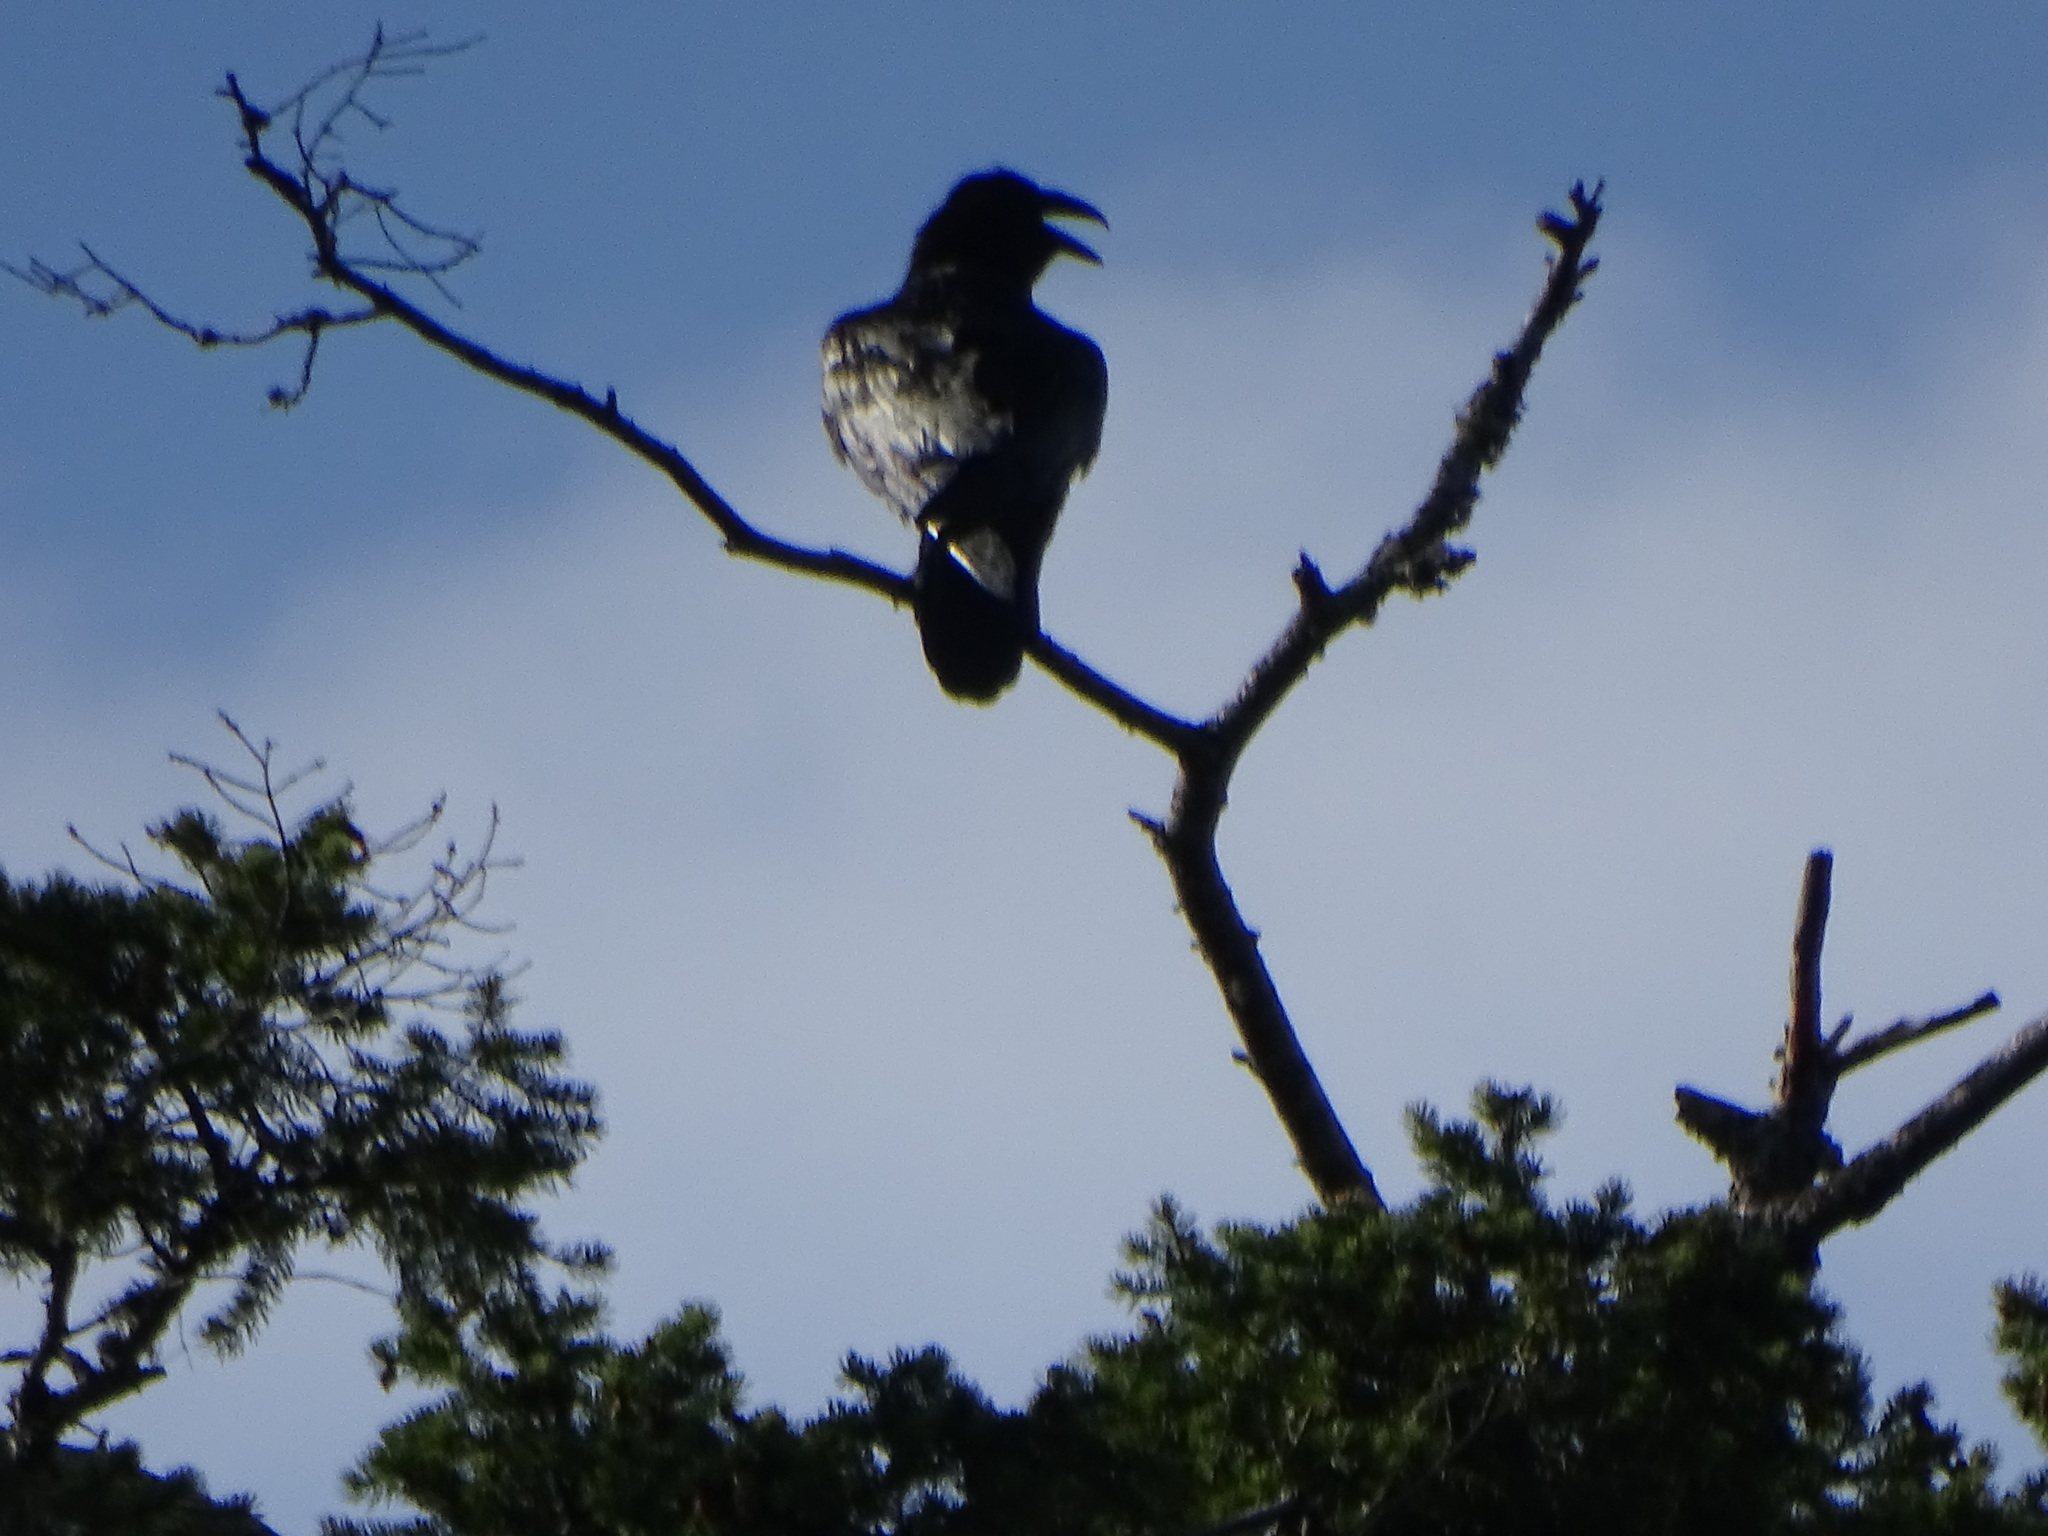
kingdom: Animalia
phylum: Chordata
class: Aves
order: Passeriformes
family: Corvidae
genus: Corvus
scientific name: Corvus corax
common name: Common raven
